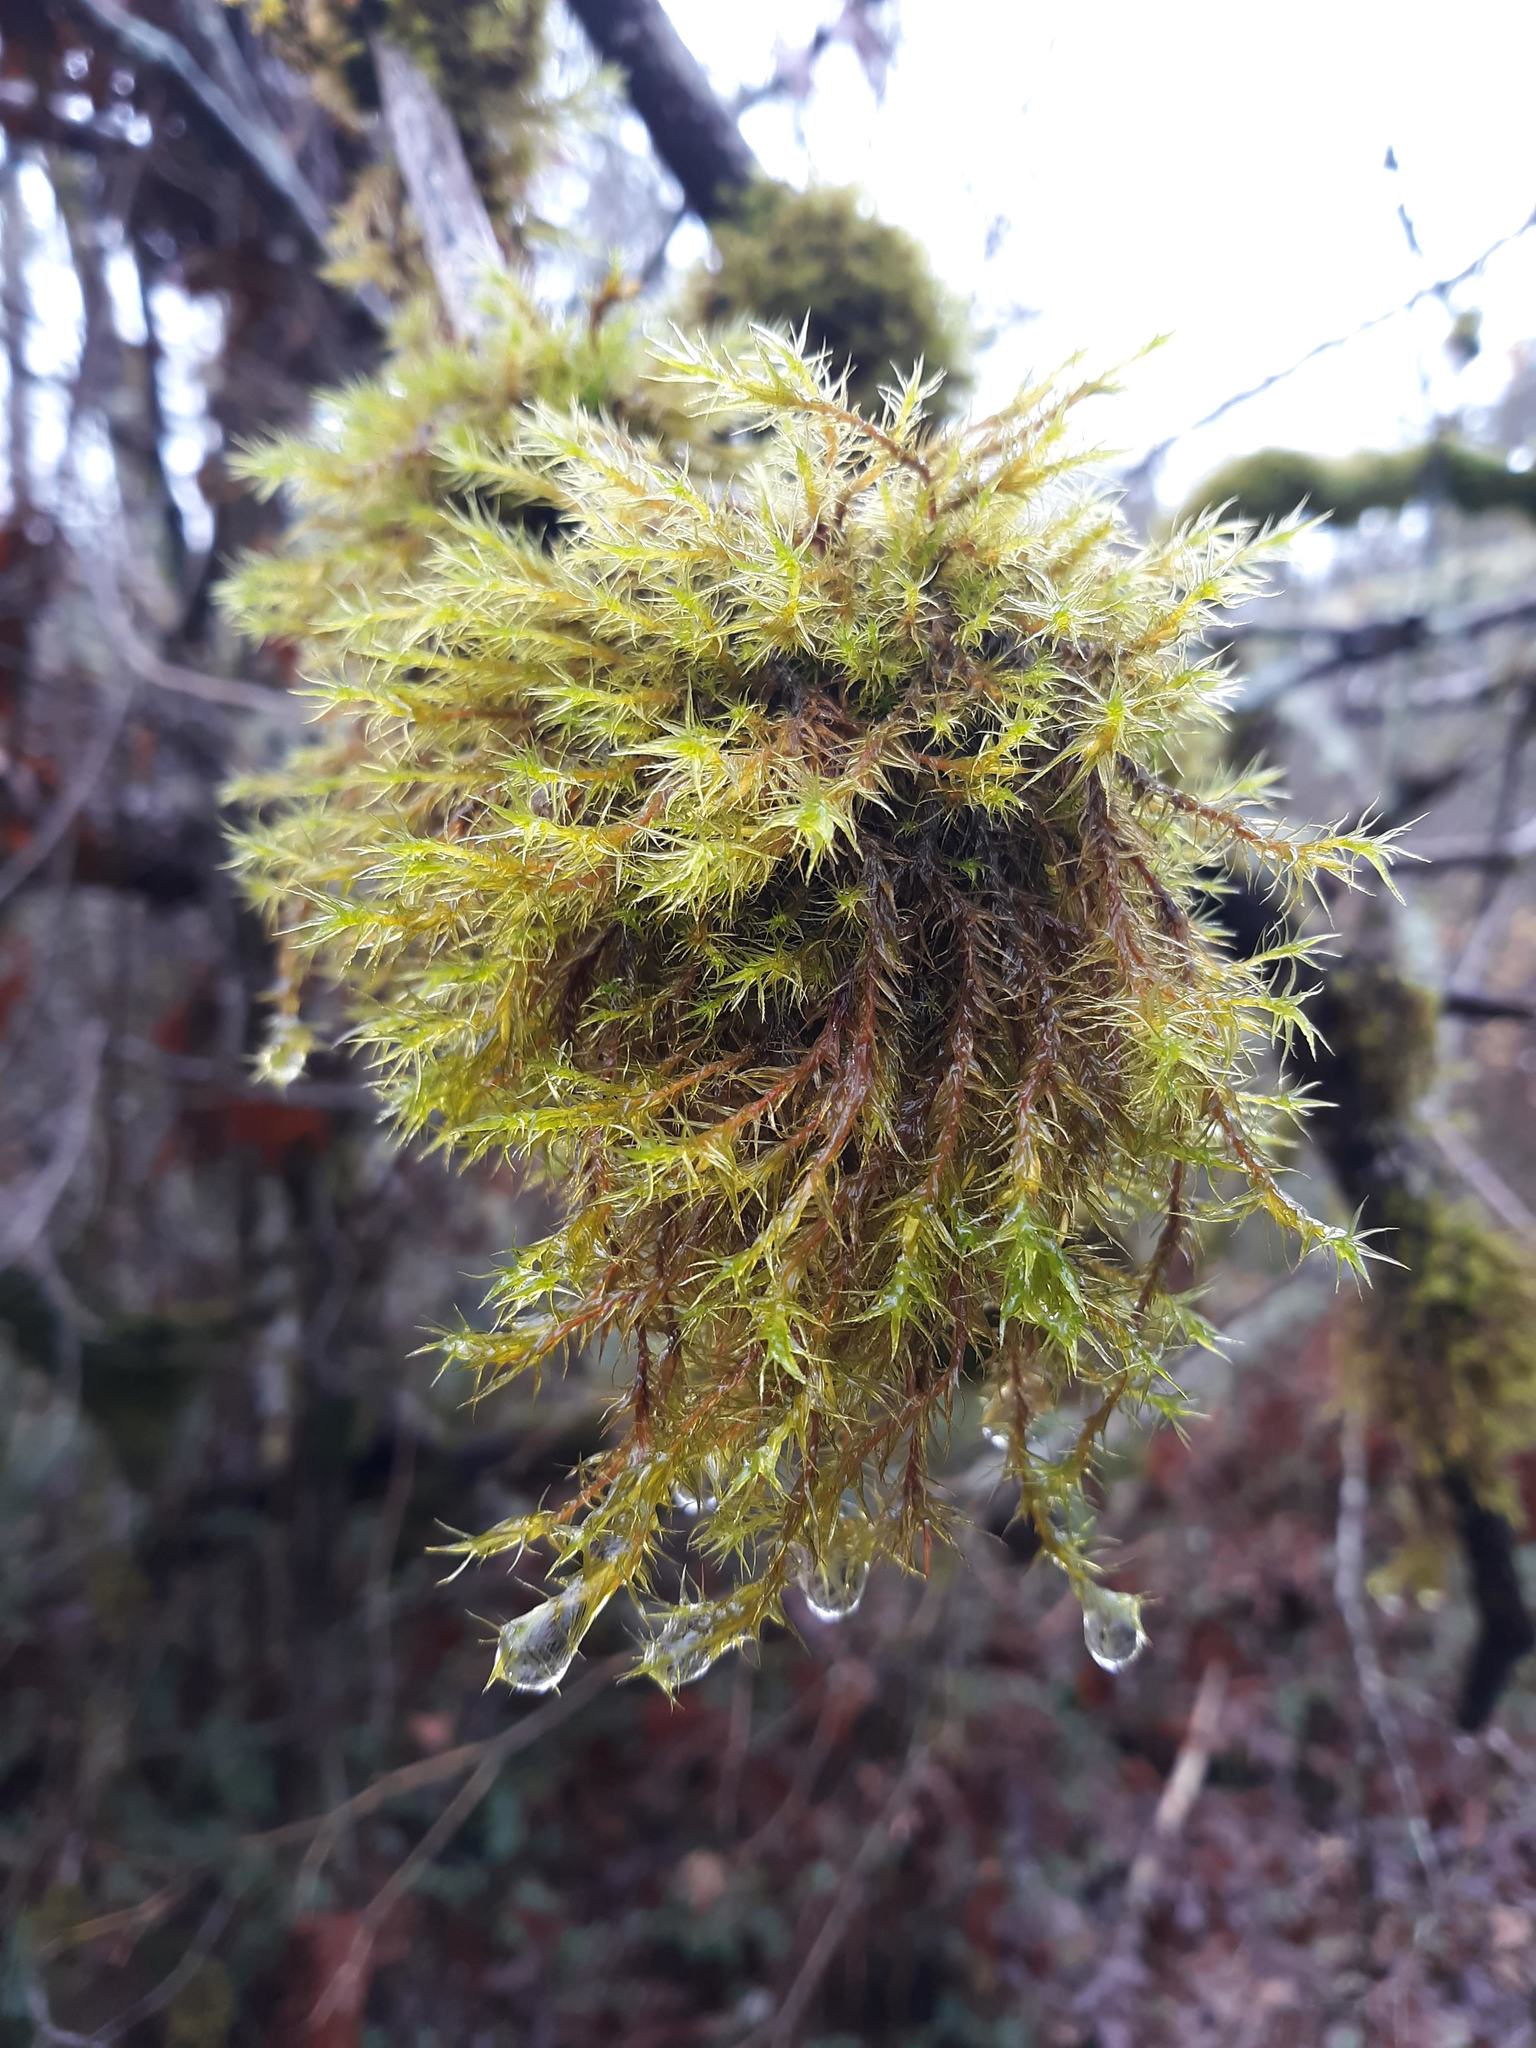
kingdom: Plantae
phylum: Bryophyta
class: Bryopsida
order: Orthotrichales
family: Orthotrichaceae
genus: Pulvigera
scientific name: Pulvigera lyellii
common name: Lyell's bristle-moss
